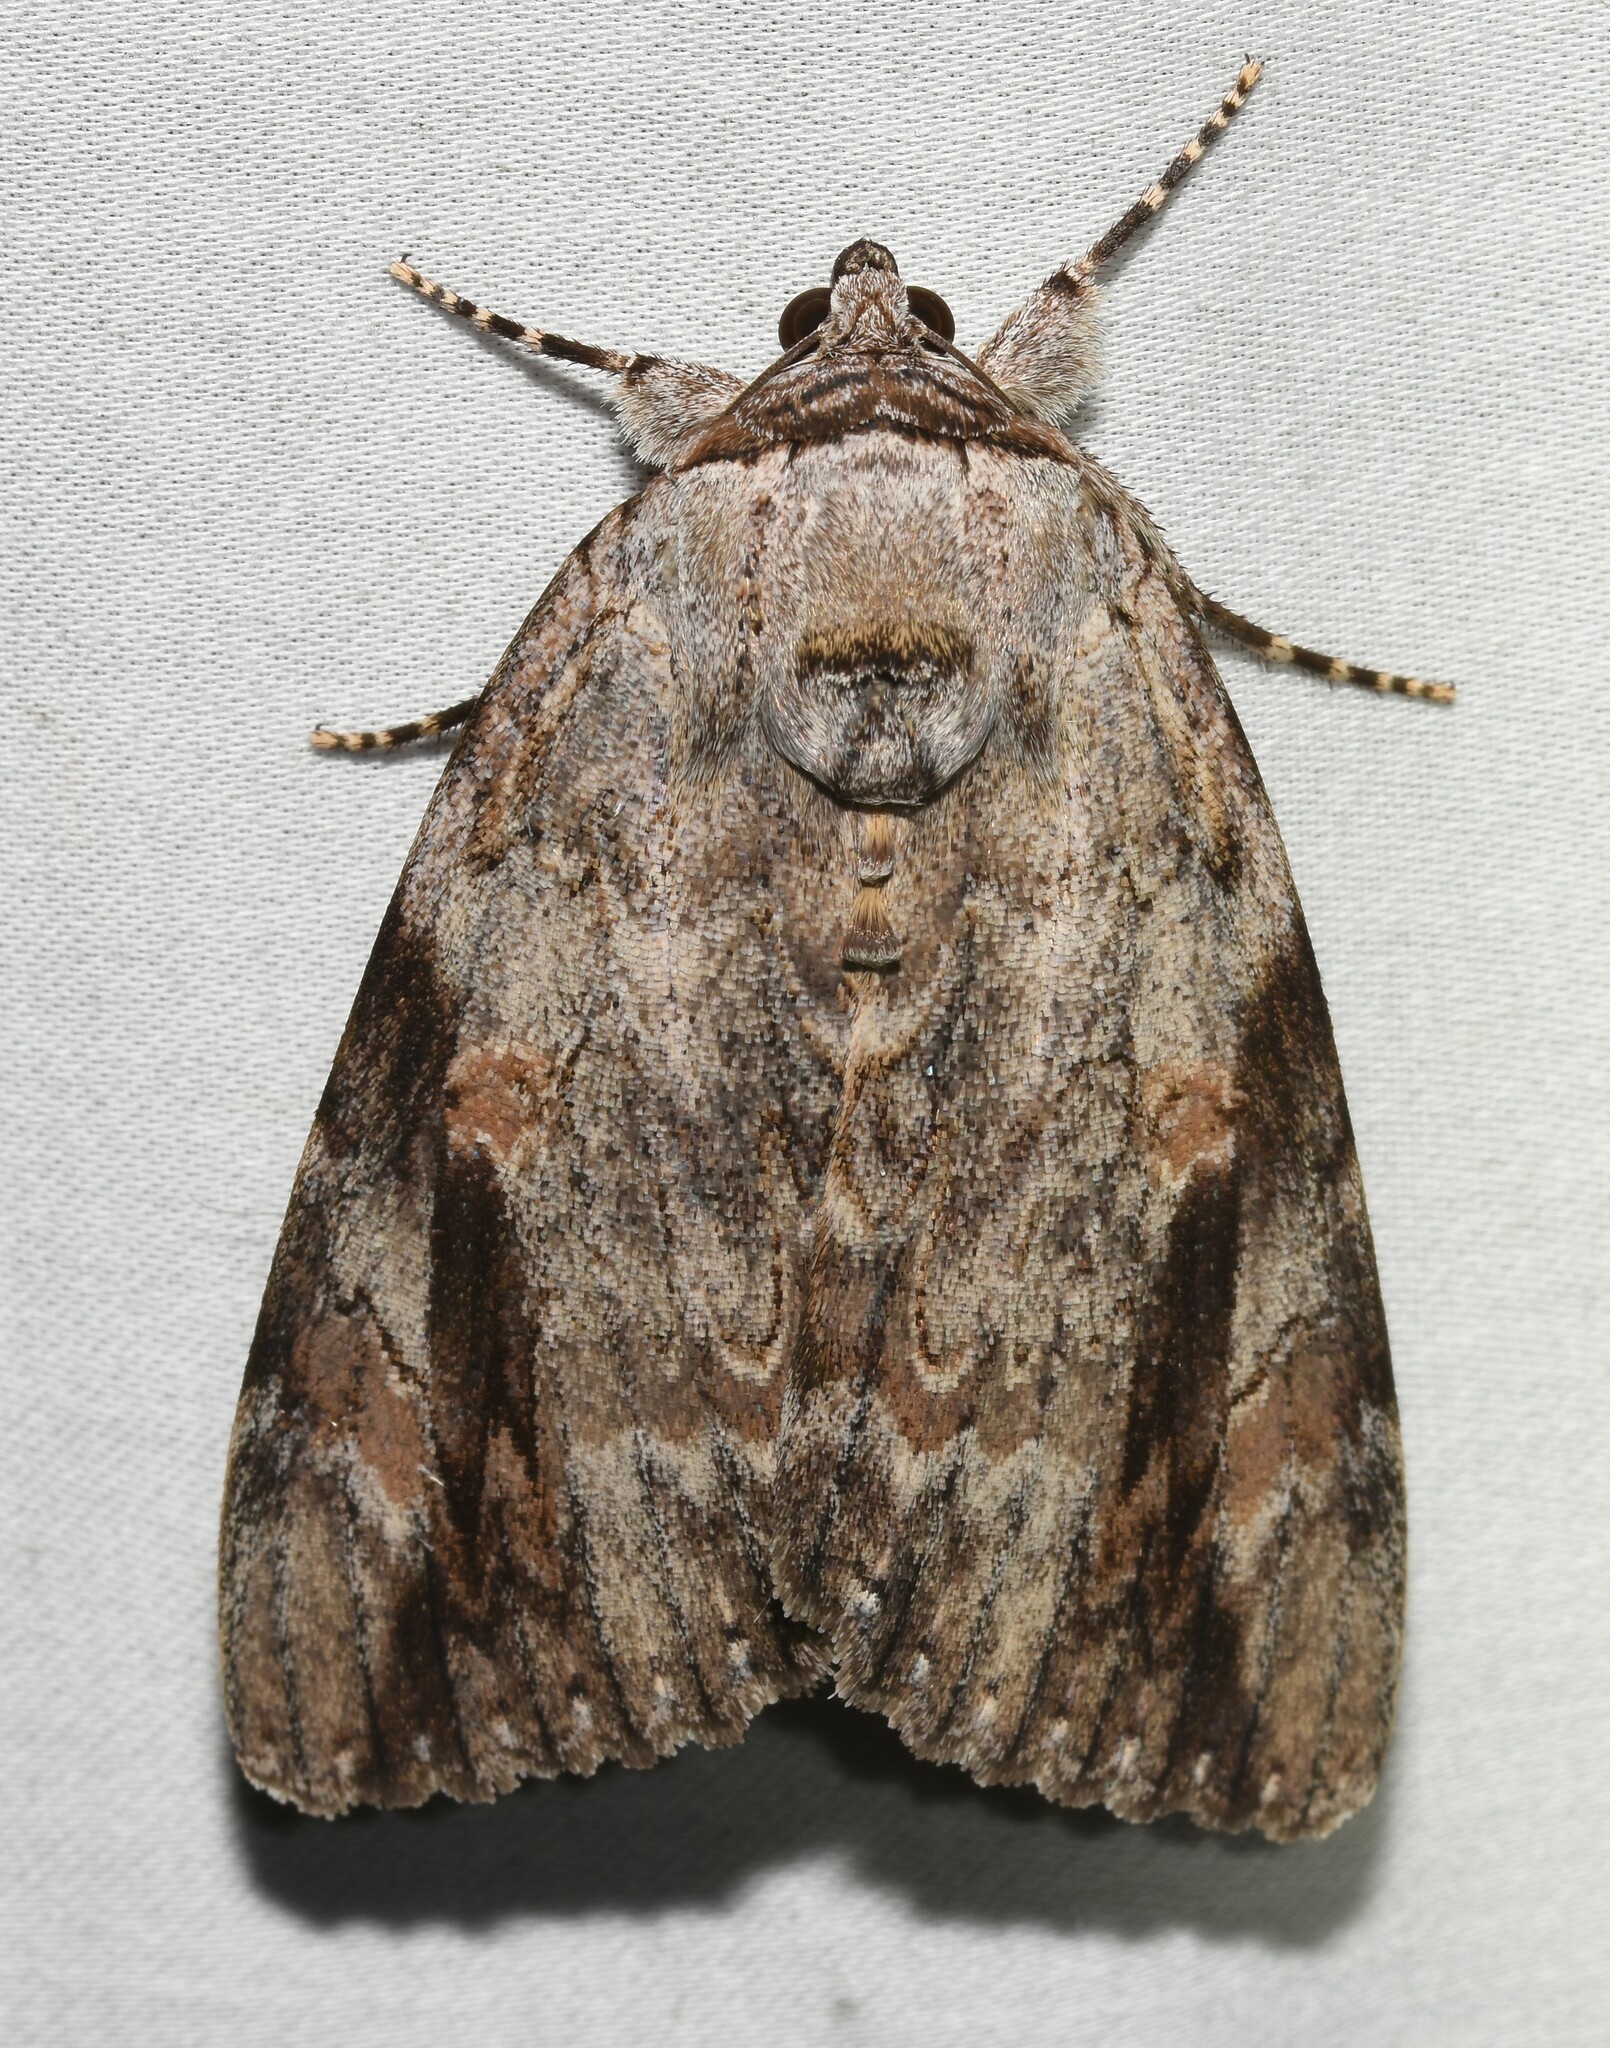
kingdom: Animalia
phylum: Arthropoda
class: Insecta
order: Lepidoptera
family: Erebidae
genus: Catocala
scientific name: Catocala maestosa
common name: Sad underwing
